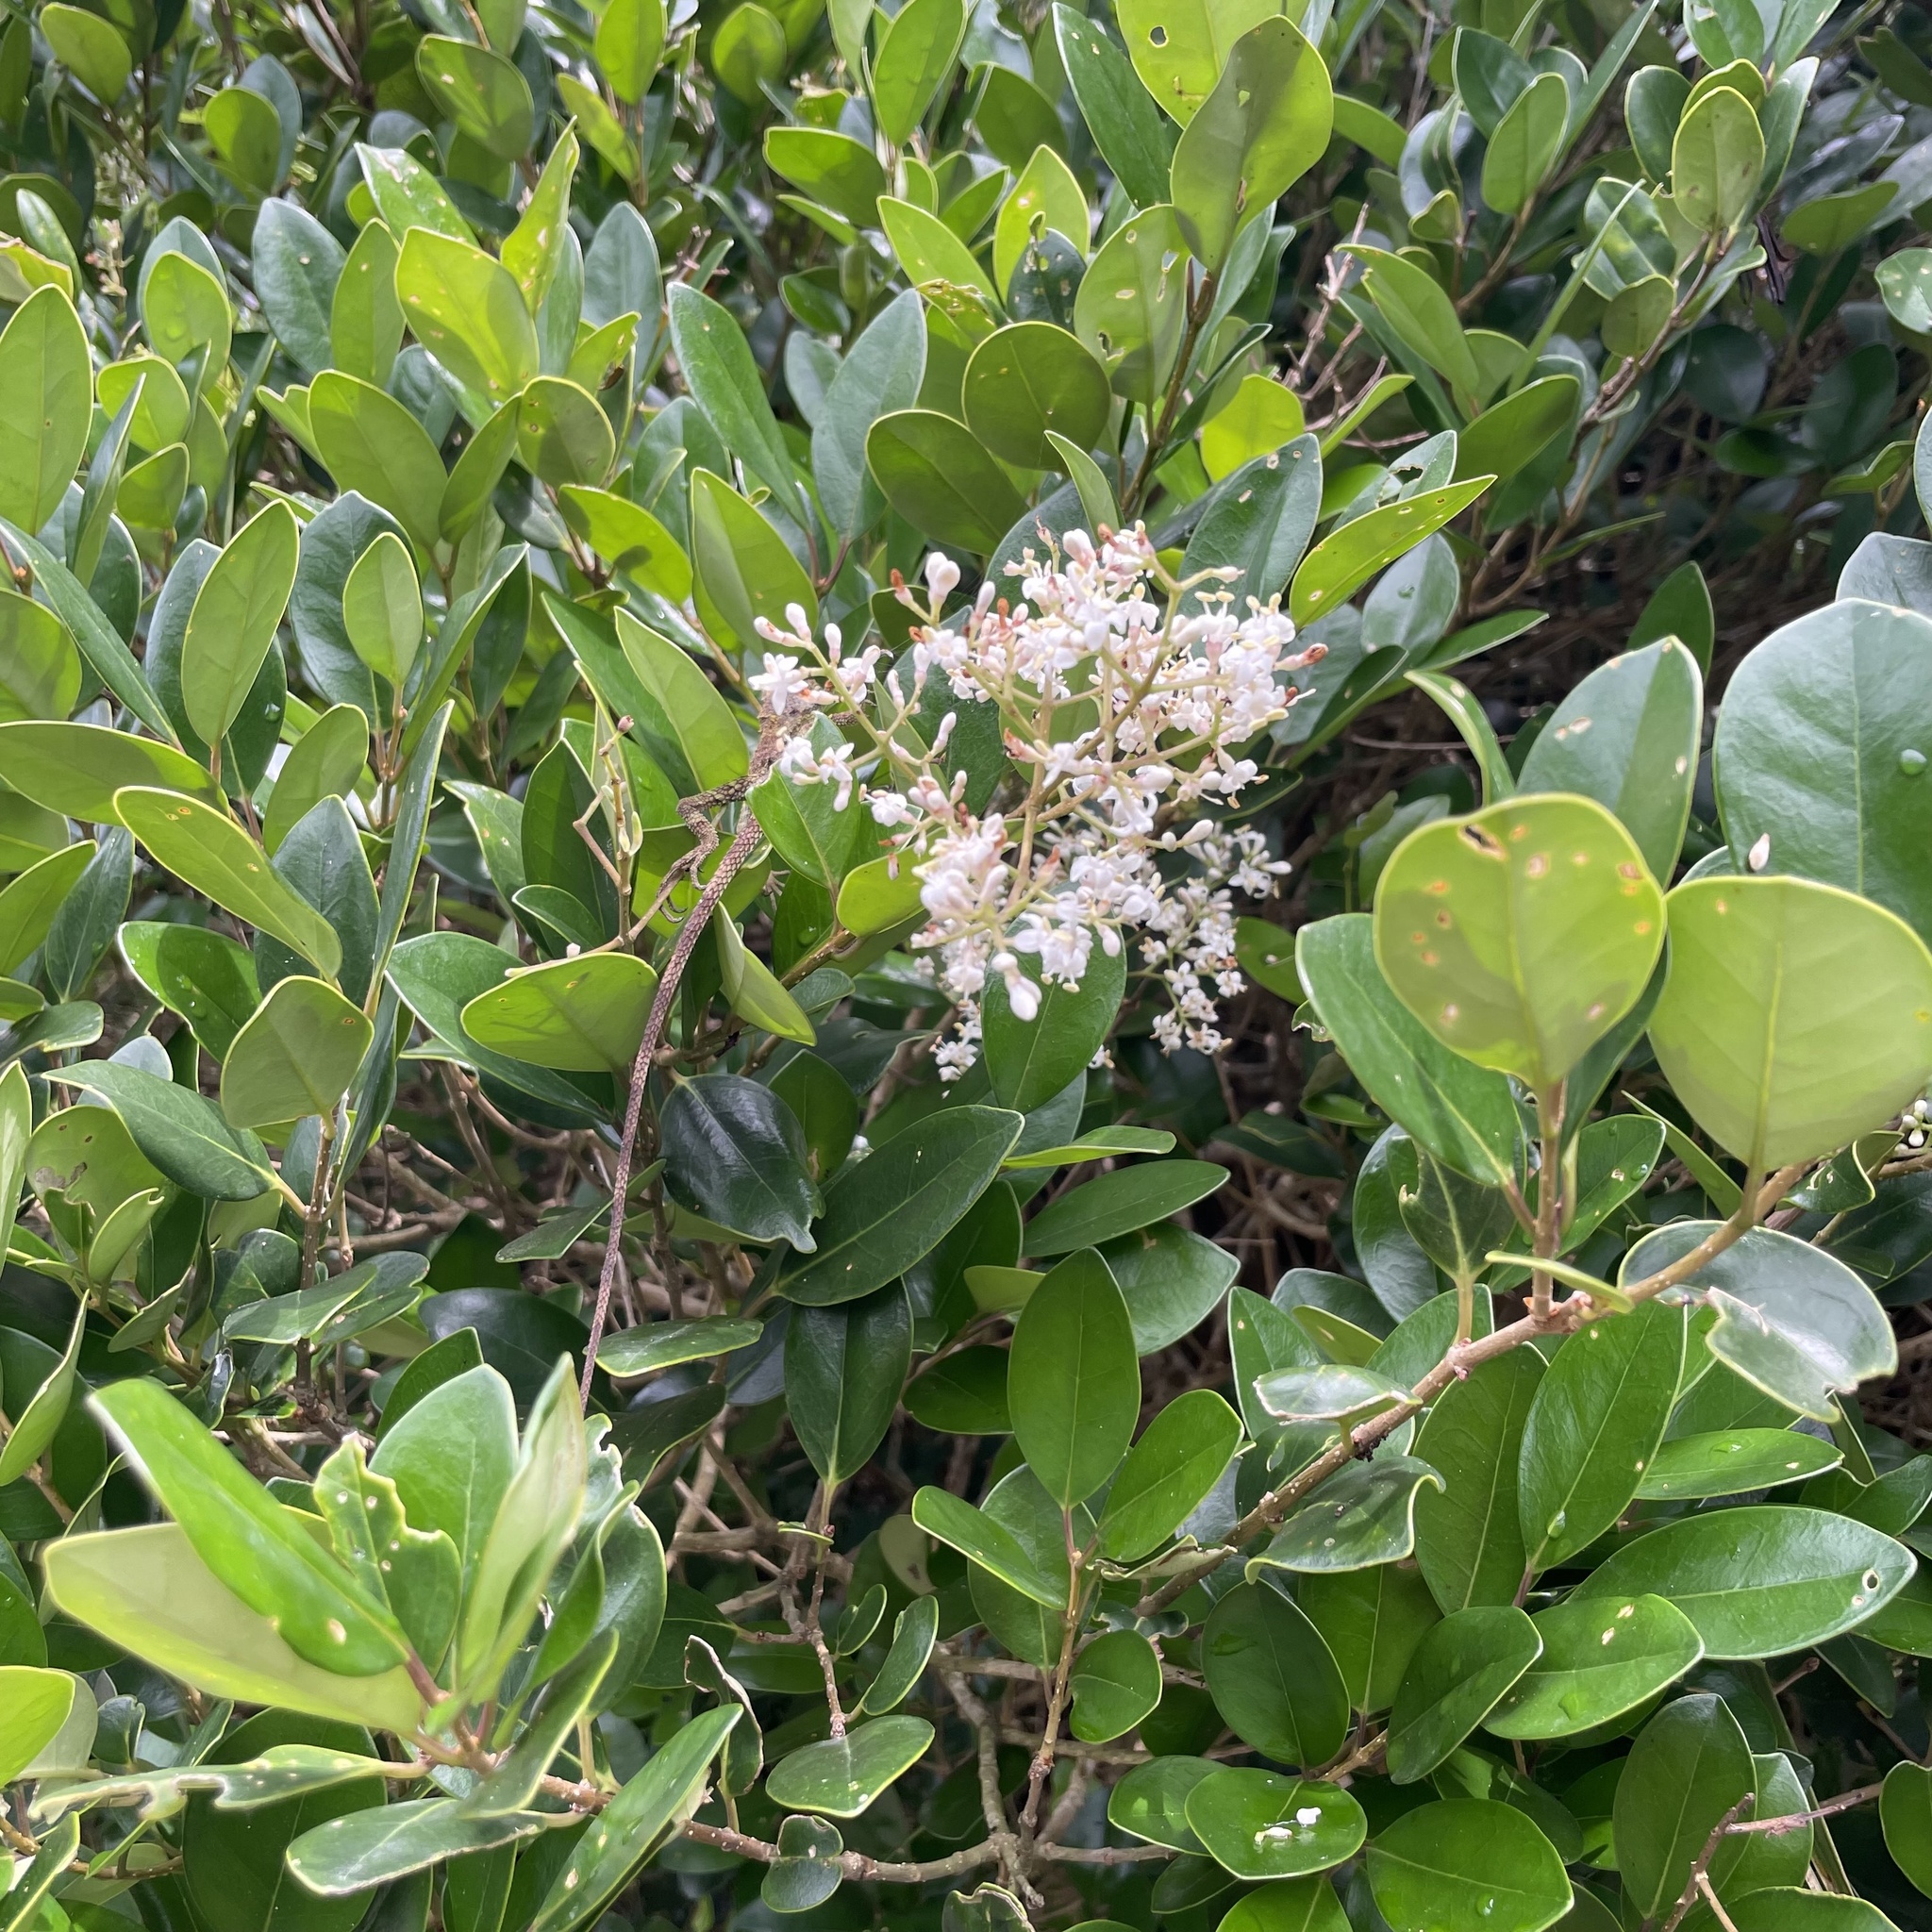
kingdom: Plantae
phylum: Tracheophyta
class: Magnoliopsida
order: Lamiales
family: Oleaceae
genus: Ligustrum
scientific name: Ligustrum japonicum
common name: Japanese privet
